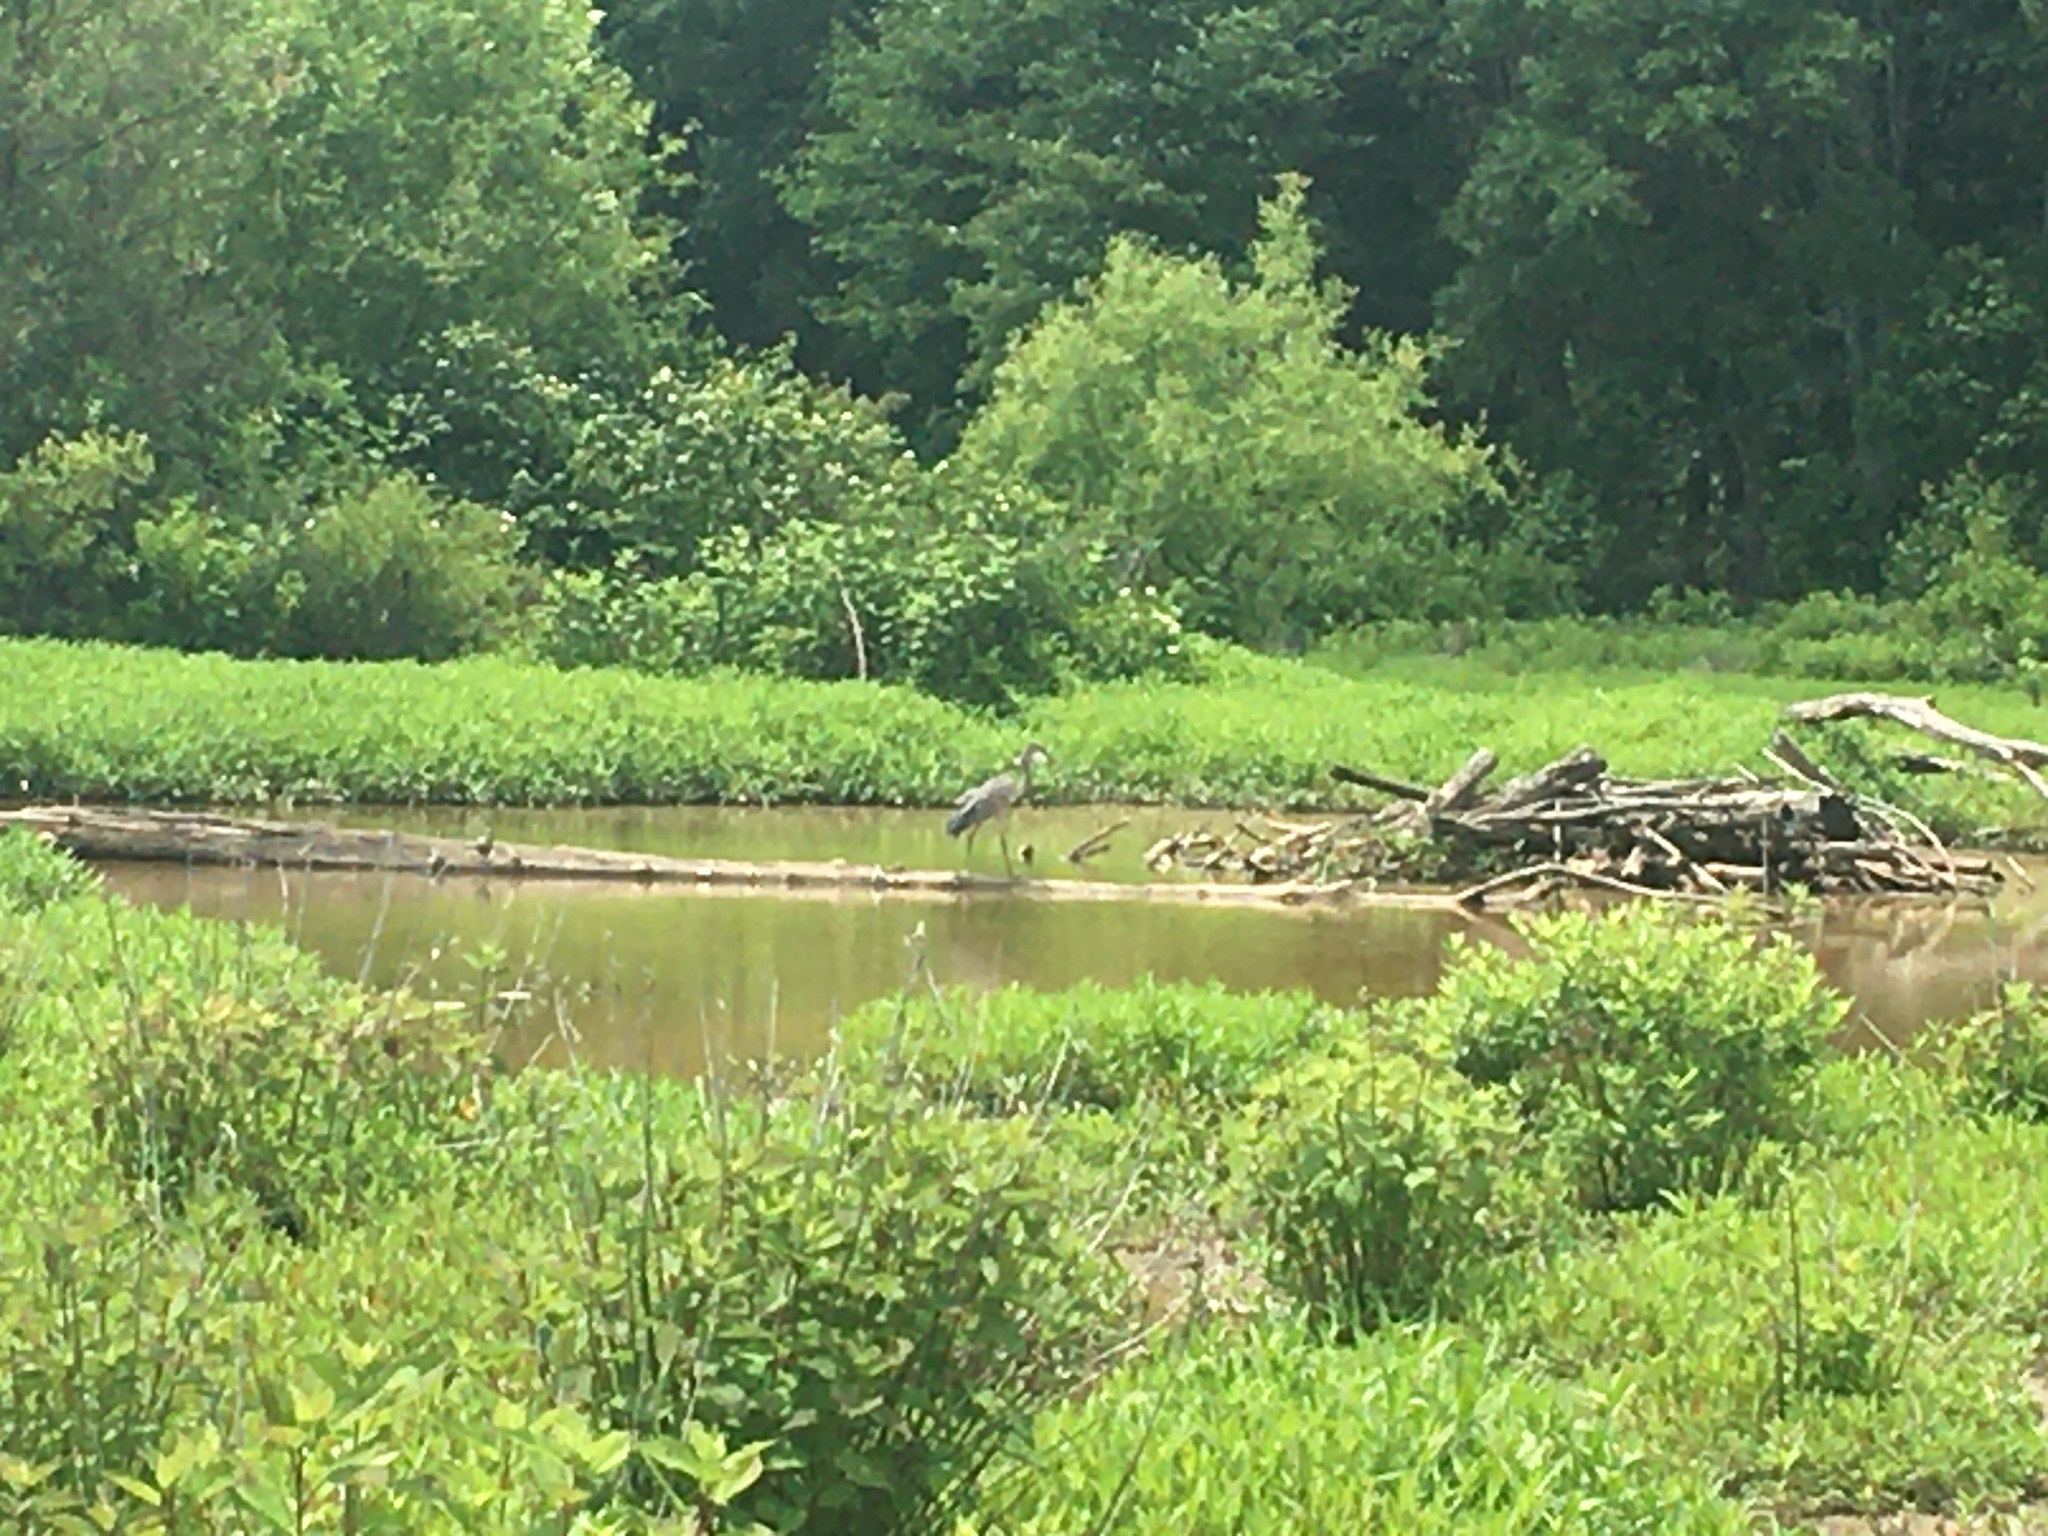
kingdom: Animalia
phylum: Chordata
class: Aves
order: Pelecaniformes
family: Ardeidae
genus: Ardea
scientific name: Ardea herodias
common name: Great blue heron
